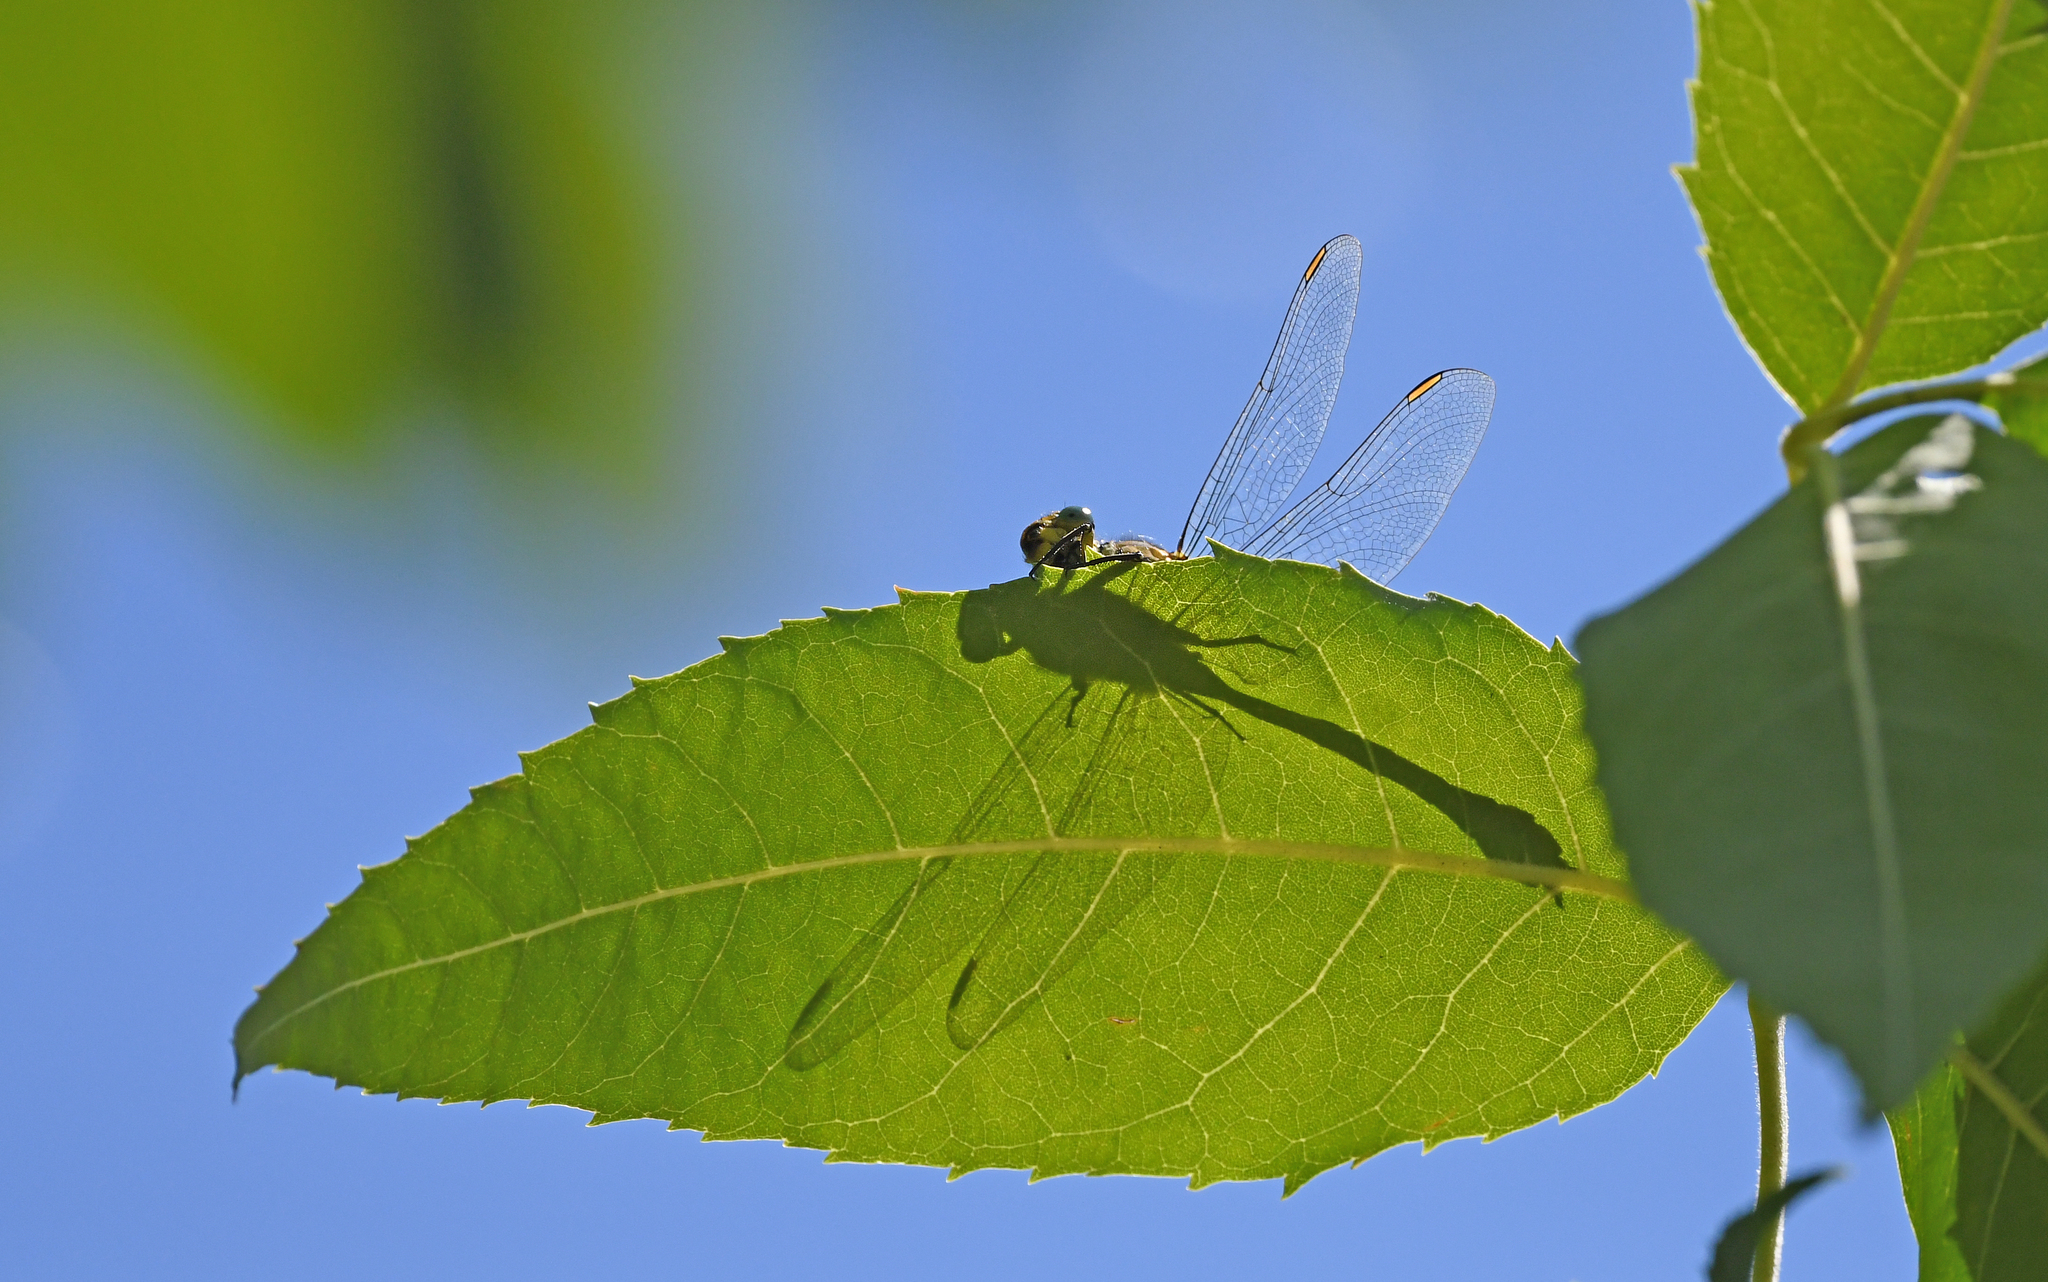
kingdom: Animalia
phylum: Arthropoda
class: Insecta
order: Odonata
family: Gomphidae
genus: Stylurus
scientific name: Stylurus flavipes
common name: River clubtail
